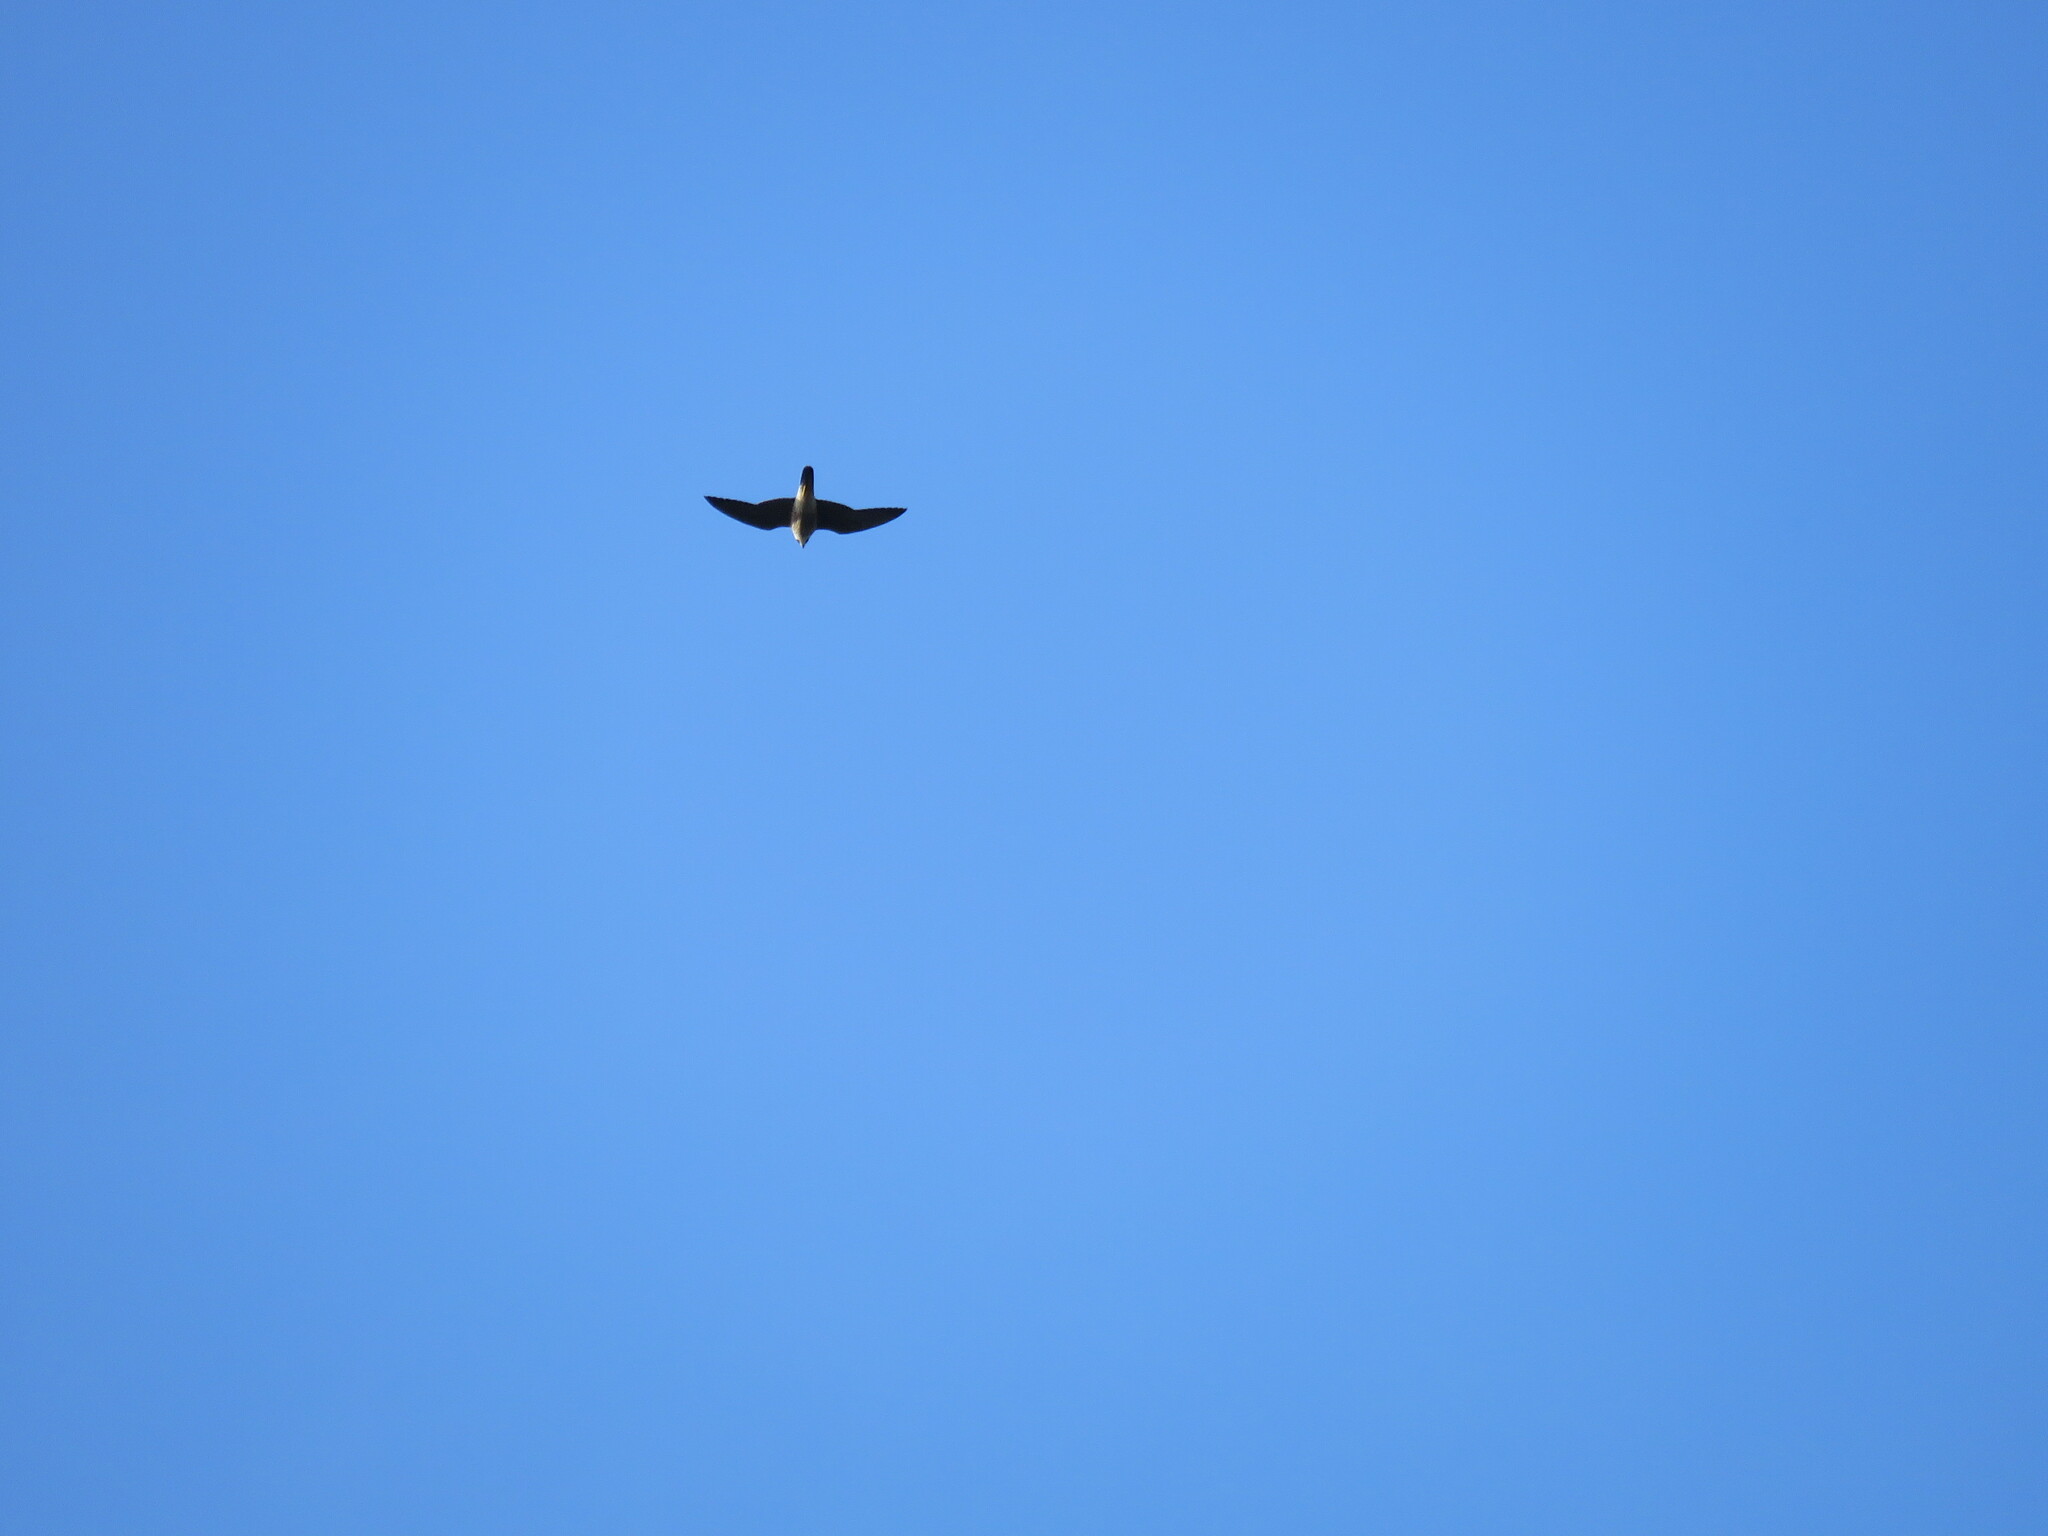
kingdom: Animalia
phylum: Chordata
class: Aves
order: Falconiformes
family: Falconidae
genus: Falco
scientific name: Falco peregrinus
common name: Peregrine falcon
